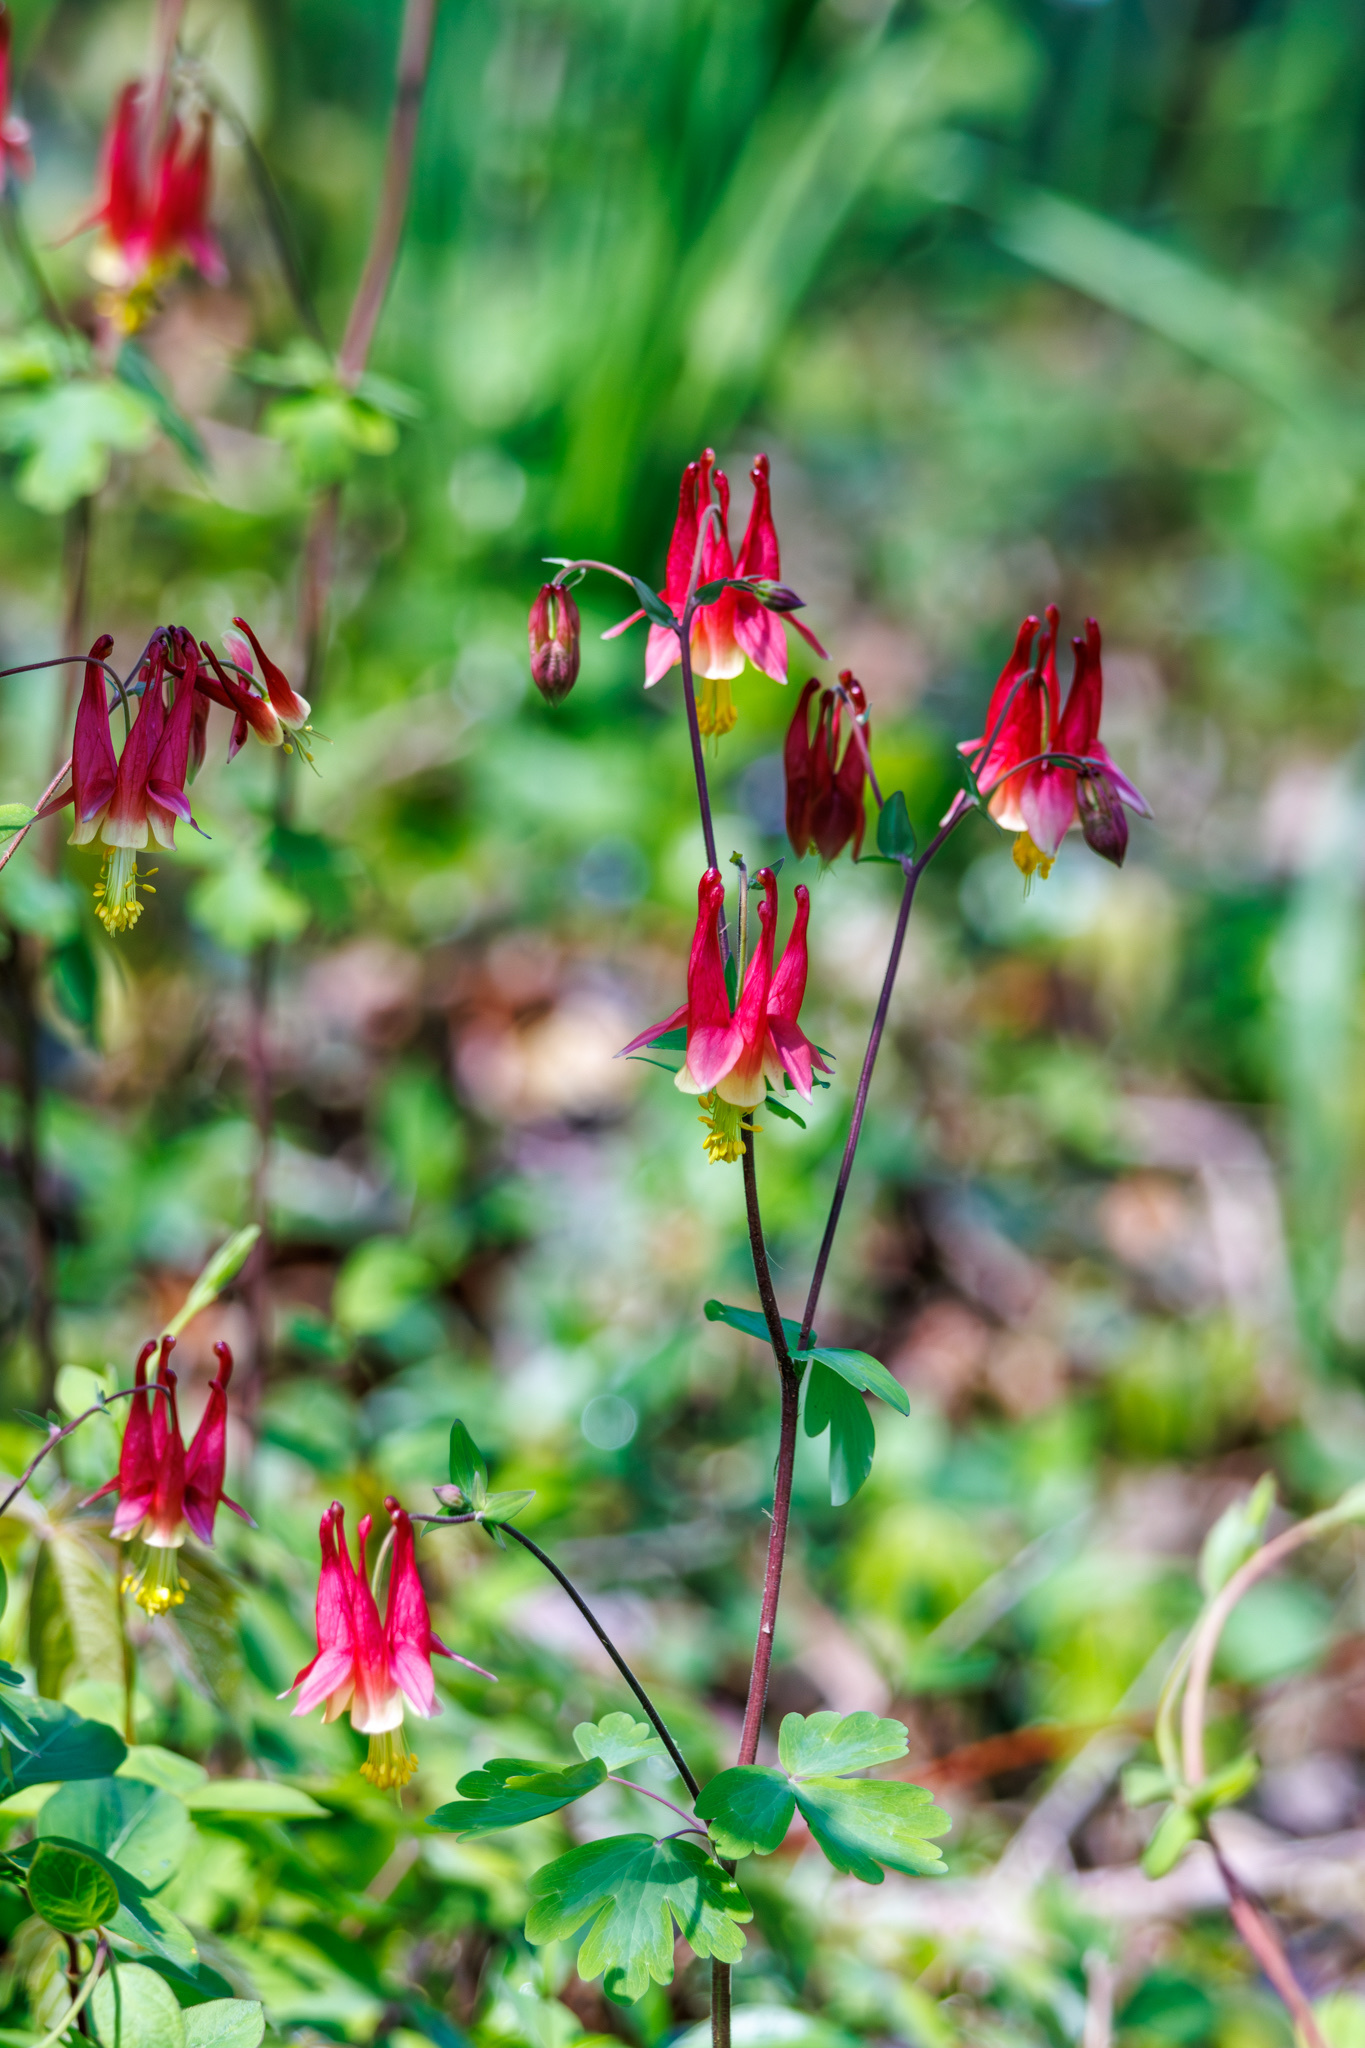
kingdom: Plantae
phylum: Tracheophyta
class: Magnoliopsida
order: Ranunculales
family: Ranunculaceae
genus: Aquilegia
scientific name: Aquilegia canadensis
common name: American columbine
